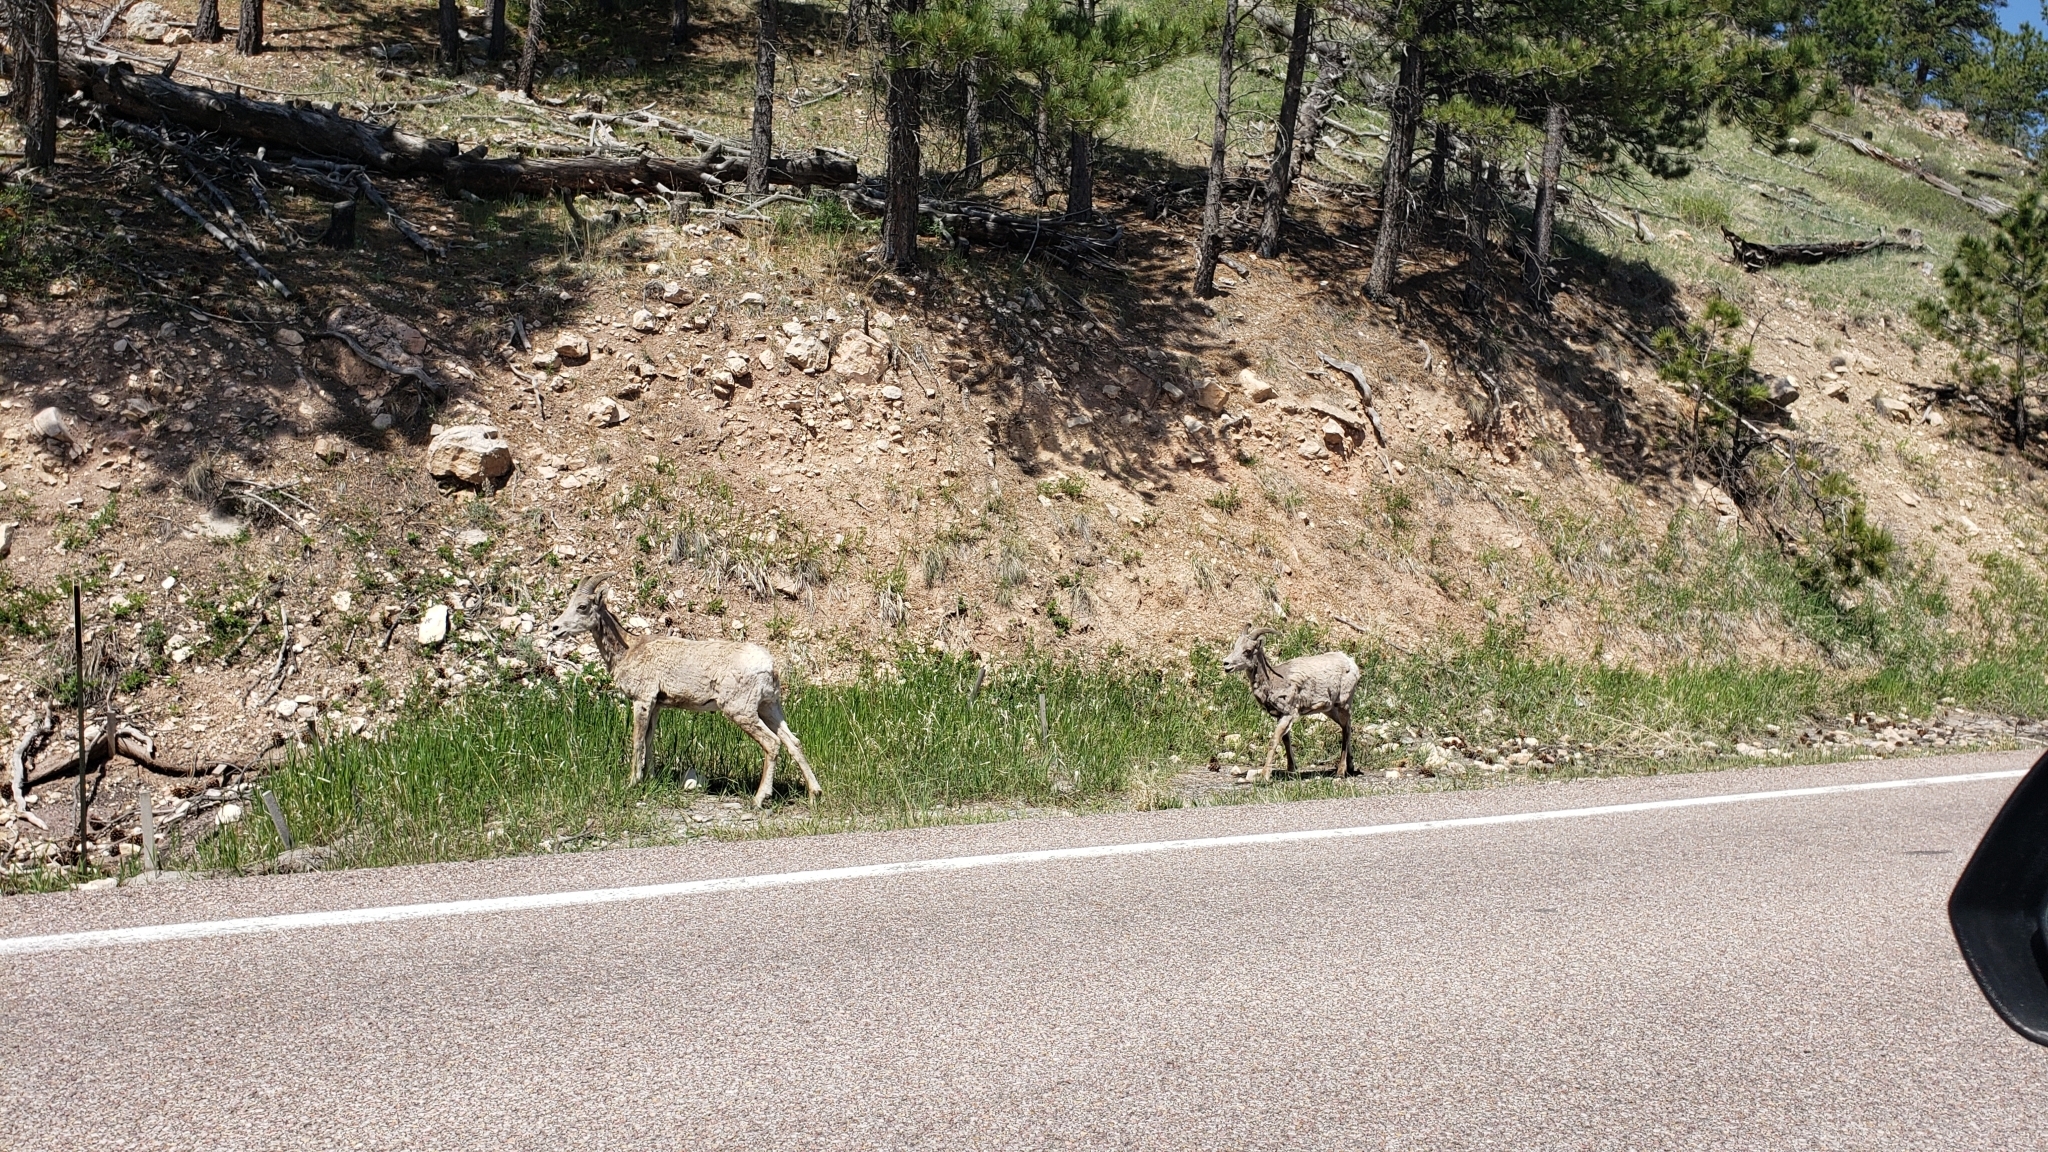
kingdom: Animalia
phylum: Chordata
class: Mammalia
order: Artiodactyla
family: Bovidae
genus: Ovis
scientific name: Ovis canadensis
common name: Bighorn sheep
